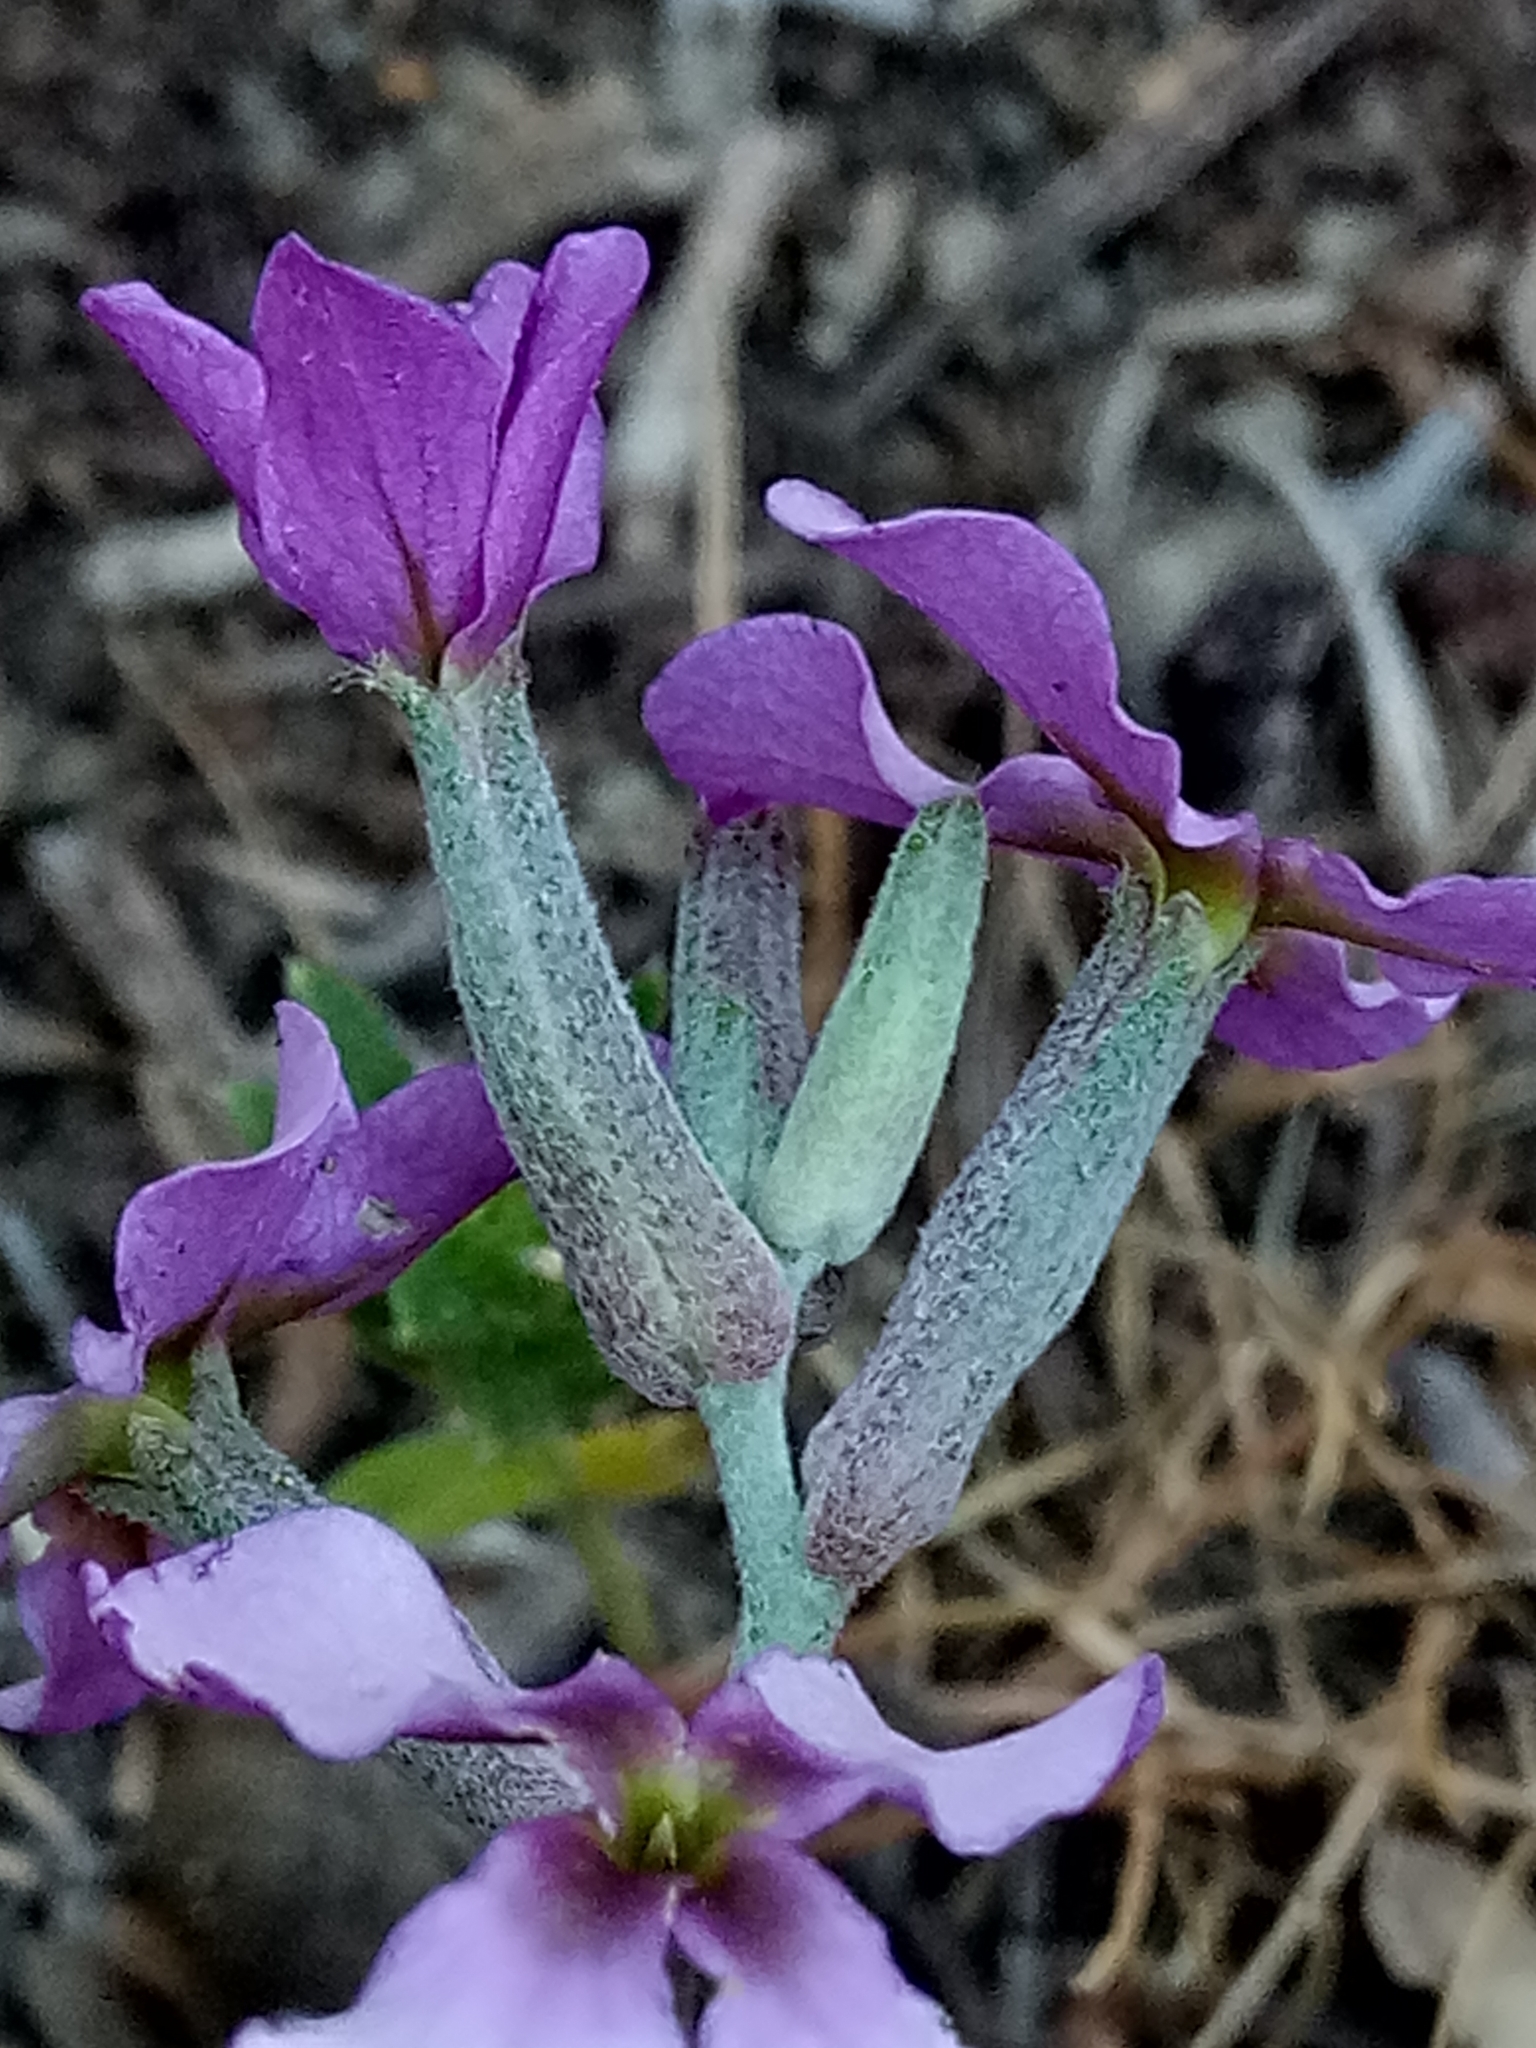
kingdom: Plantae
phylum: Tracheophyta
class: Magnoliopsida
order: Brassicales
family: Brassicaceae
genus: Matthiola
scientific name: Matthiola fruticulosa
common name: Sad stock
